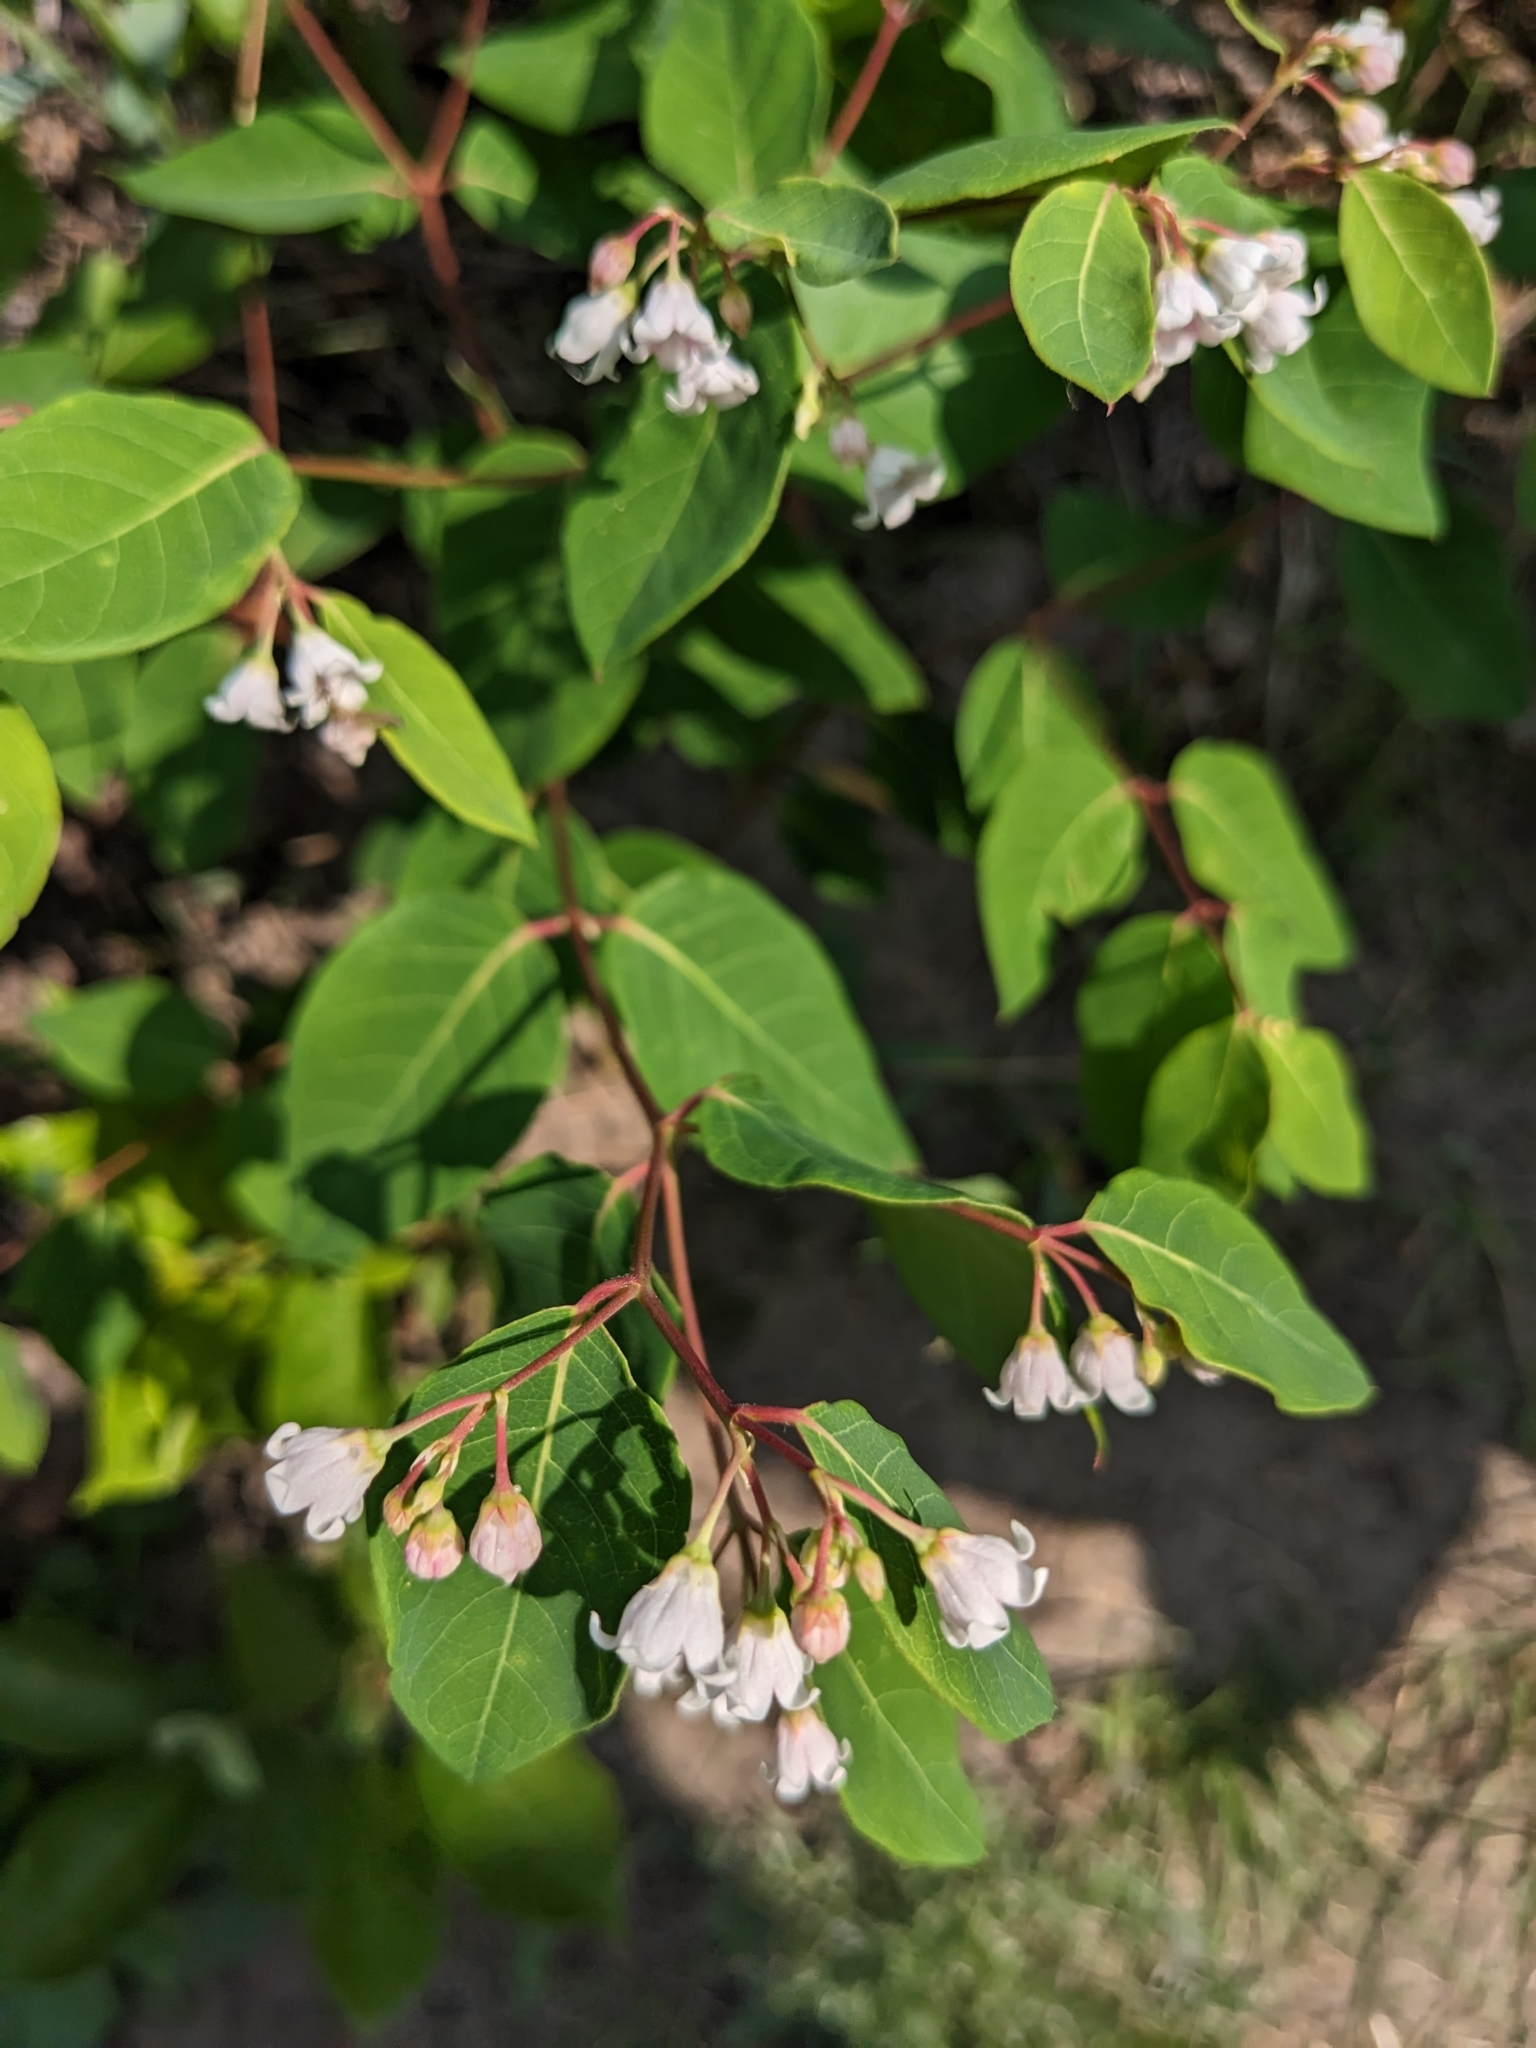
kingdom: Plantae
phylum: Tracheophyta
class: Magnoliopsida
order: Gentianales
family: Apocynaceae
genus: Apocynum
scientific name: Apocynum androsaemifolium
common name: Spreading dogbane
